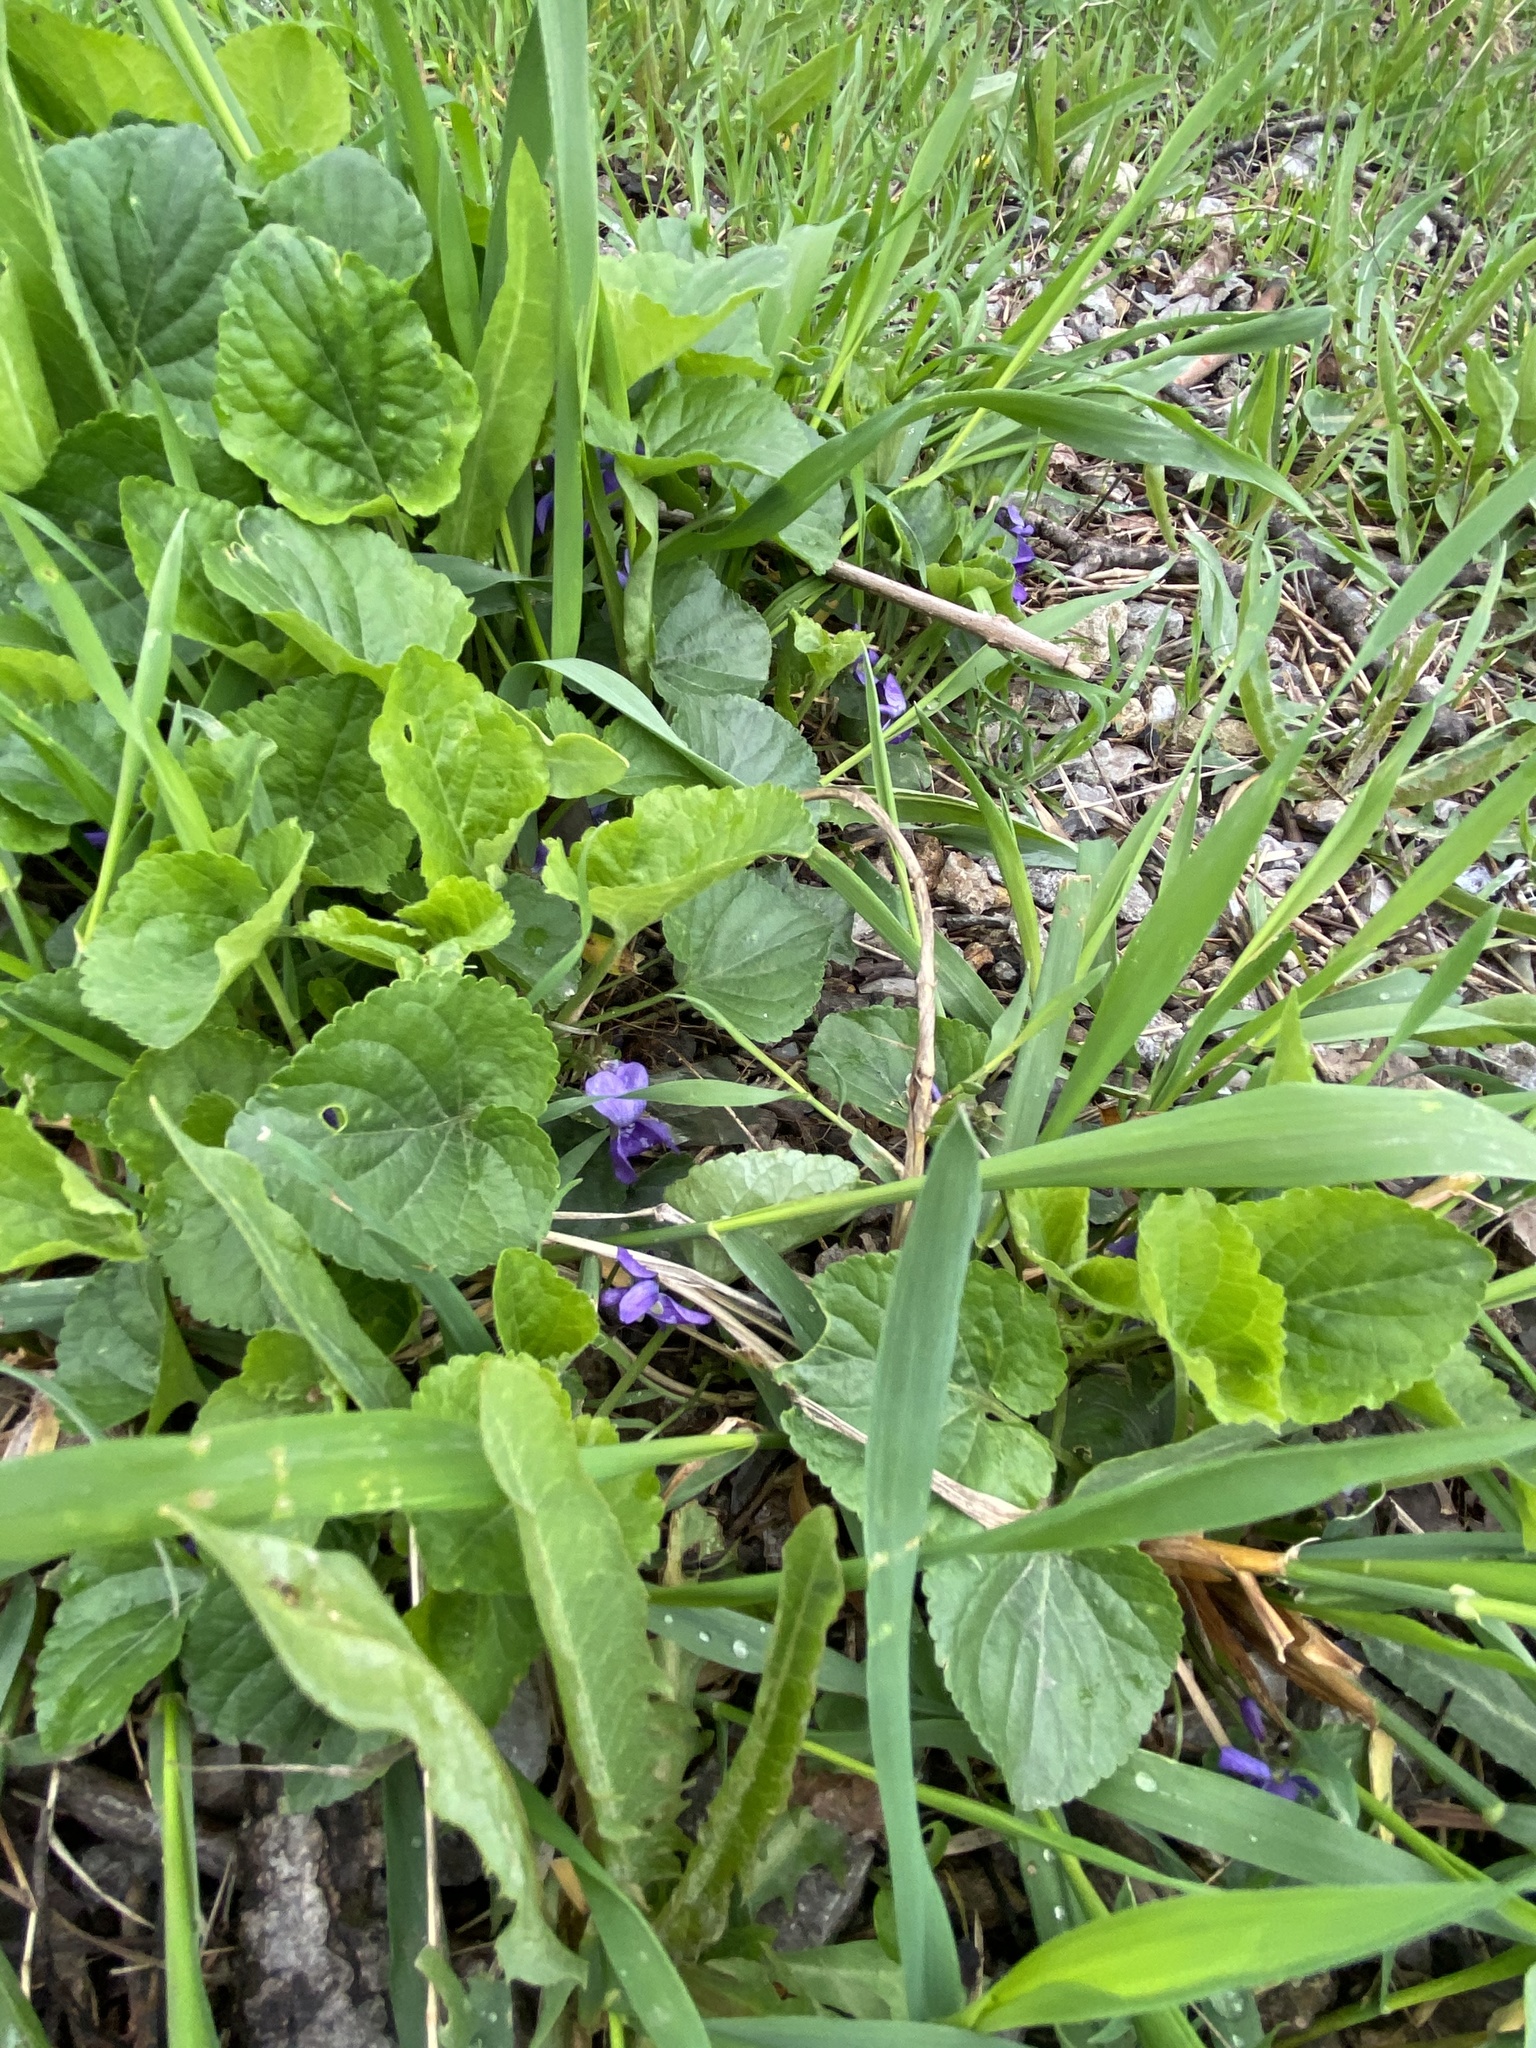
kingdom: Plantae
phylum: Tracheophyta
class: Magnoliopsida
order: Malpighiales
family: Violaceae
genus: Viola
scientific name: Viola odorata
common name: Sweet violet
